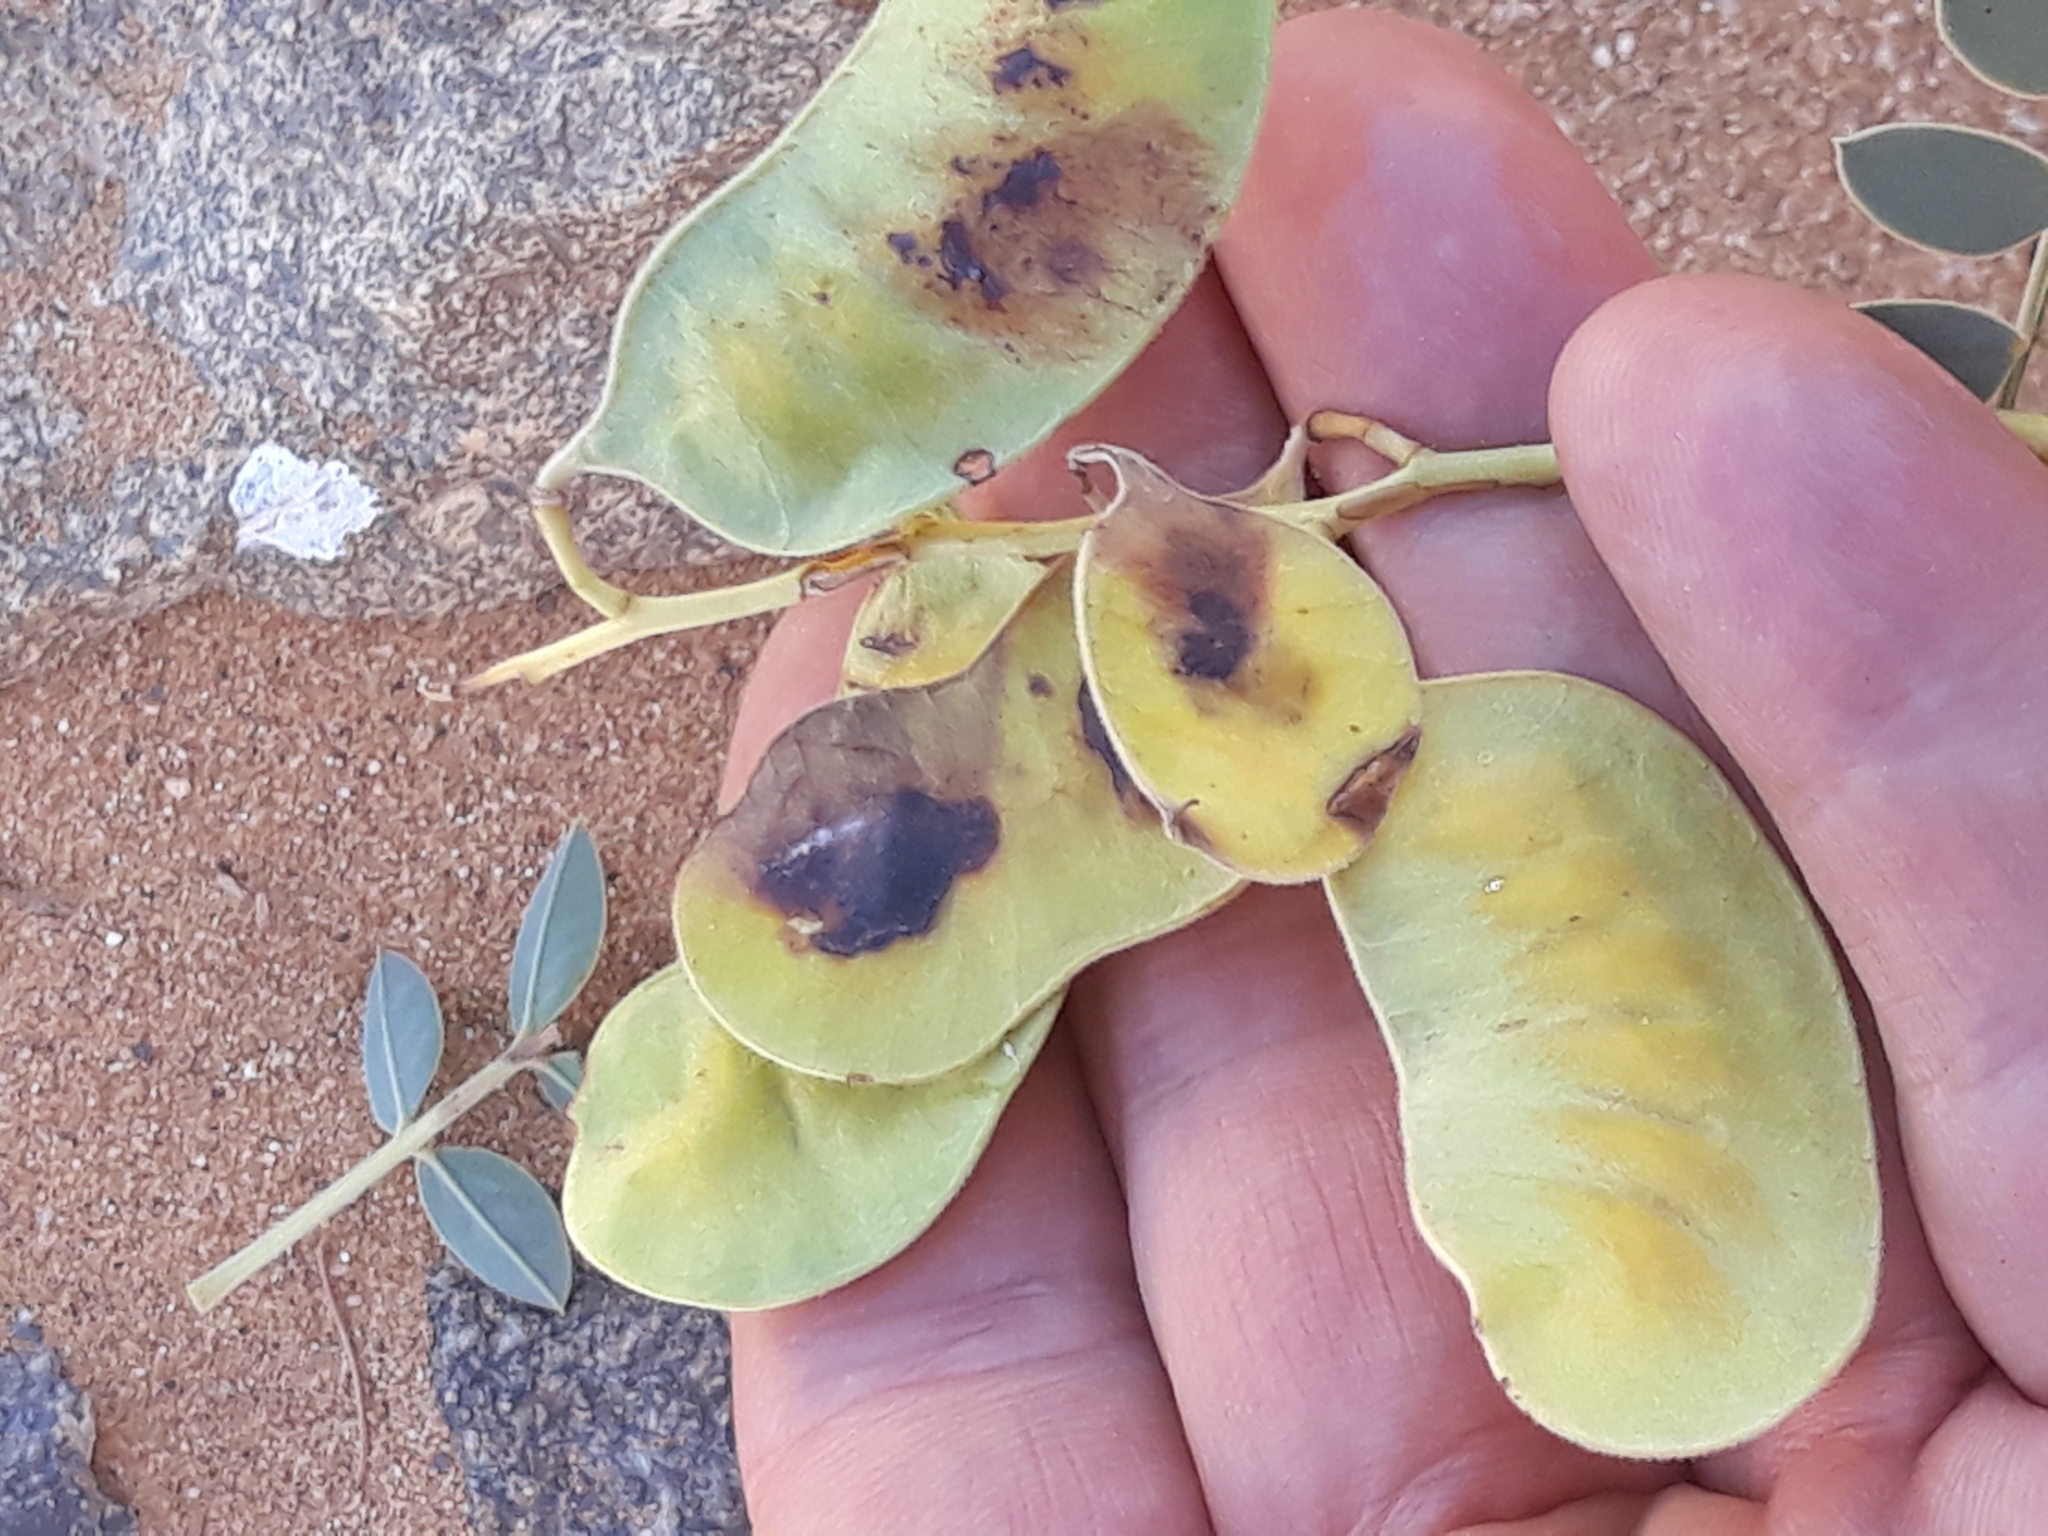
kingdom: Plantae
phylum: Tracheophyta
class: Magnoliopsida
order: Fabales
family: Fabaceae
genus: Senna
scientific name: Senna alexandrina
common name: True senna
